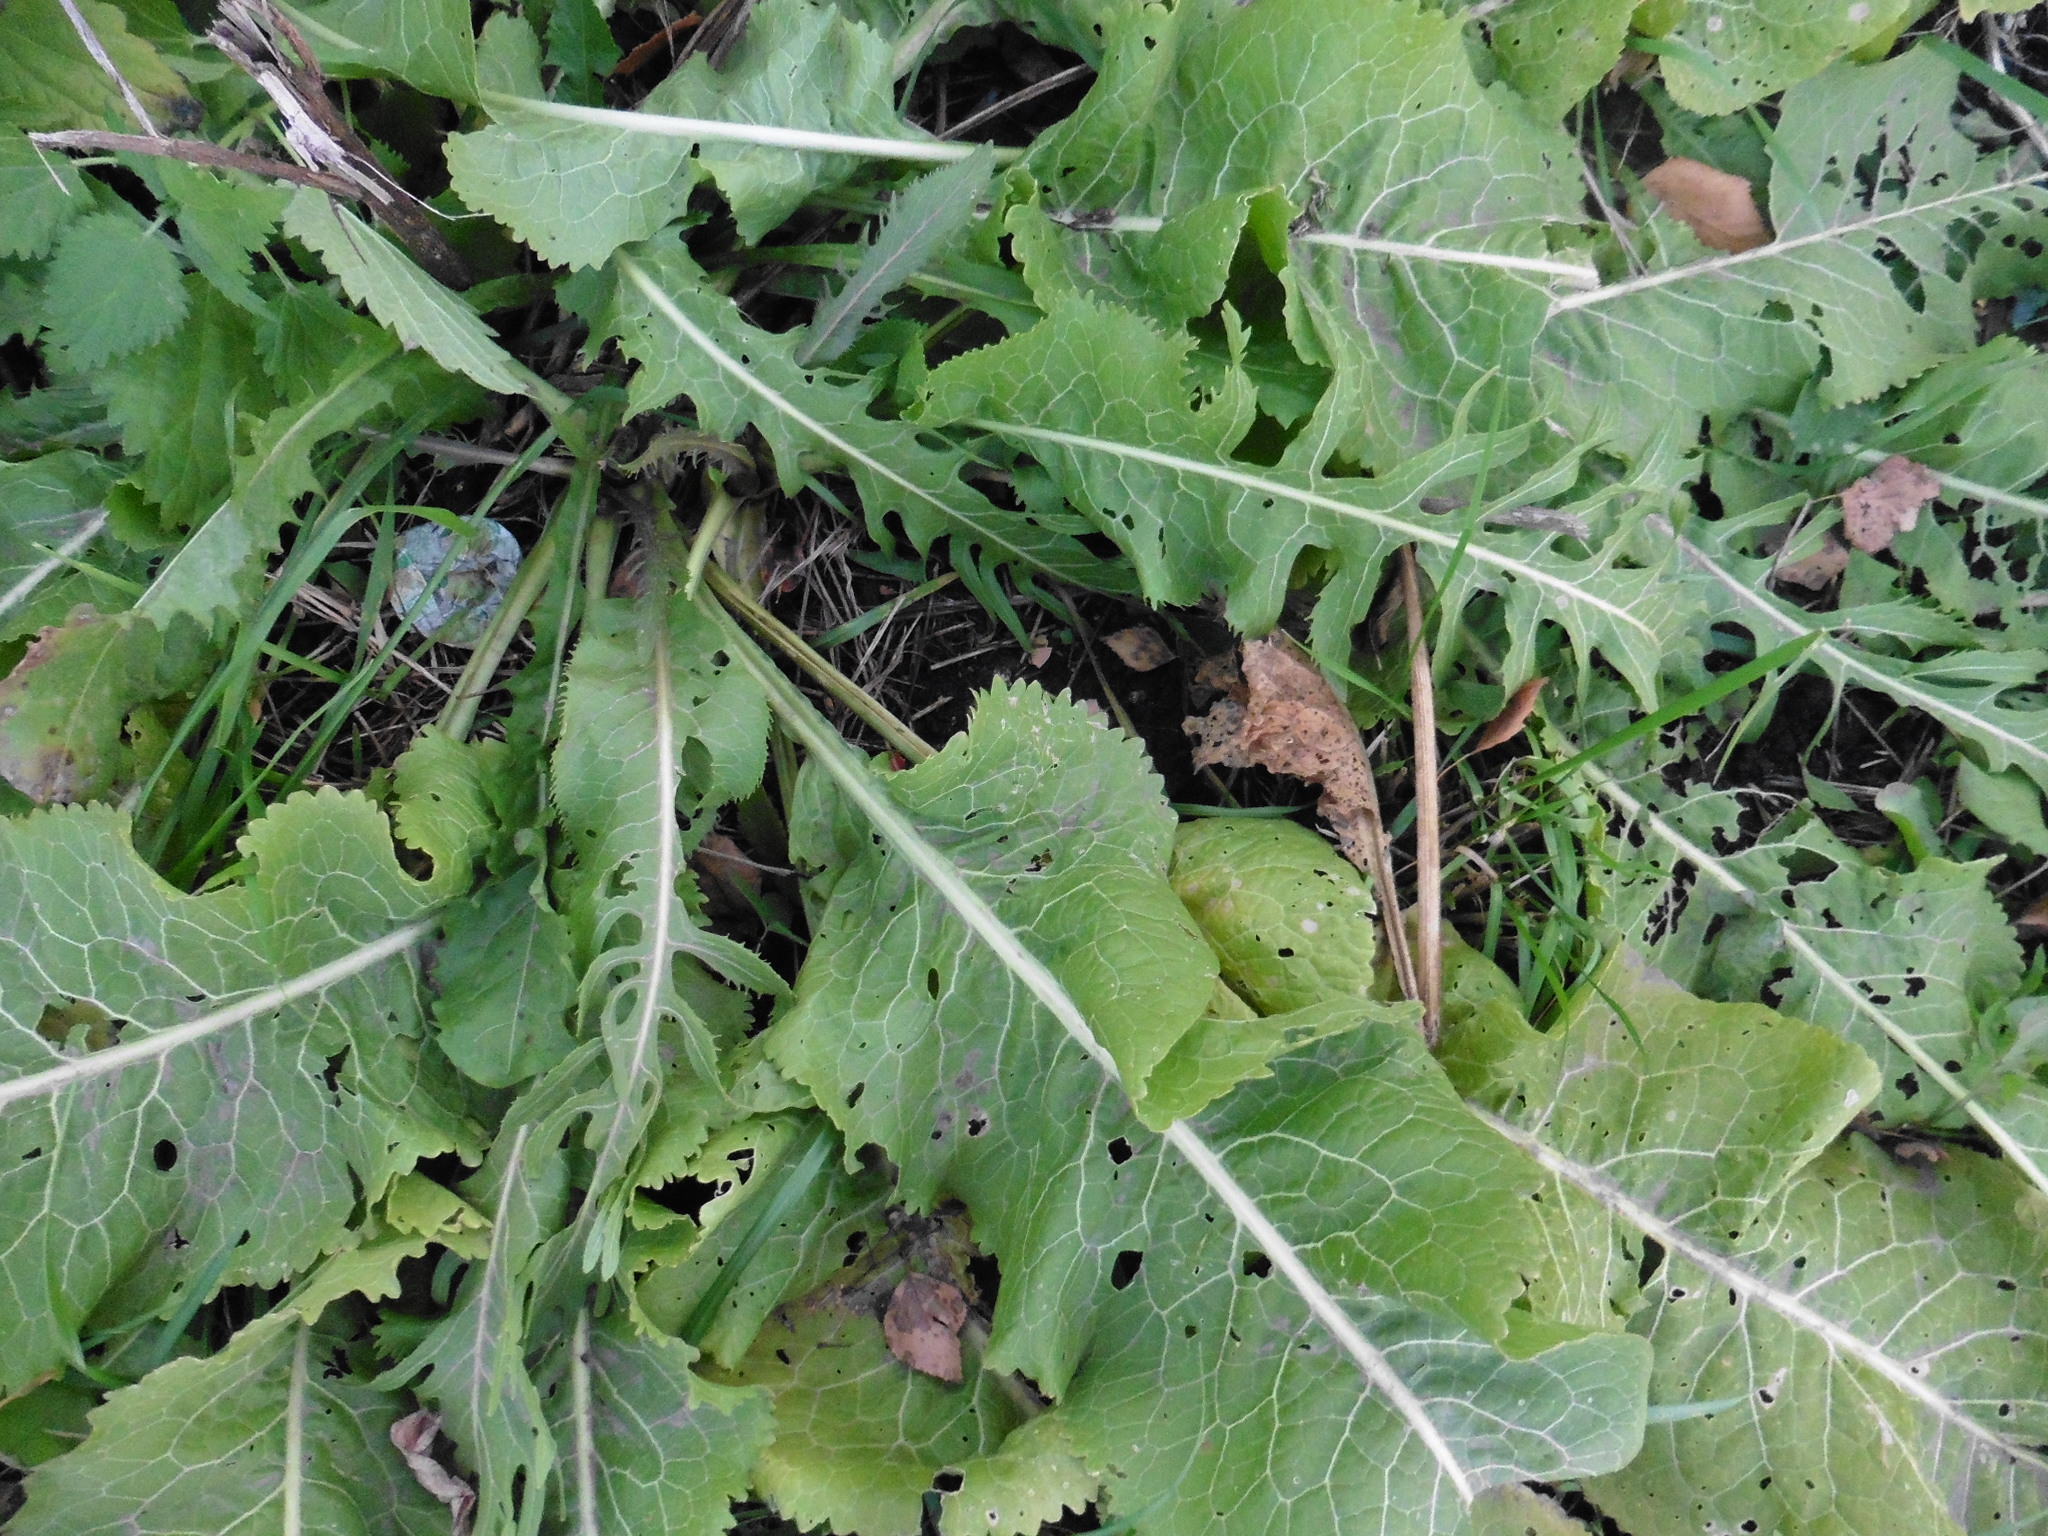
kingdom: Plantae
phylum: Tracheophyta
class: Magnoliopsida
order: Brassicales
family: Brassicaceae
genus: Armoracia
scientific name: Armoracia rusticana
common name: Horseradish
